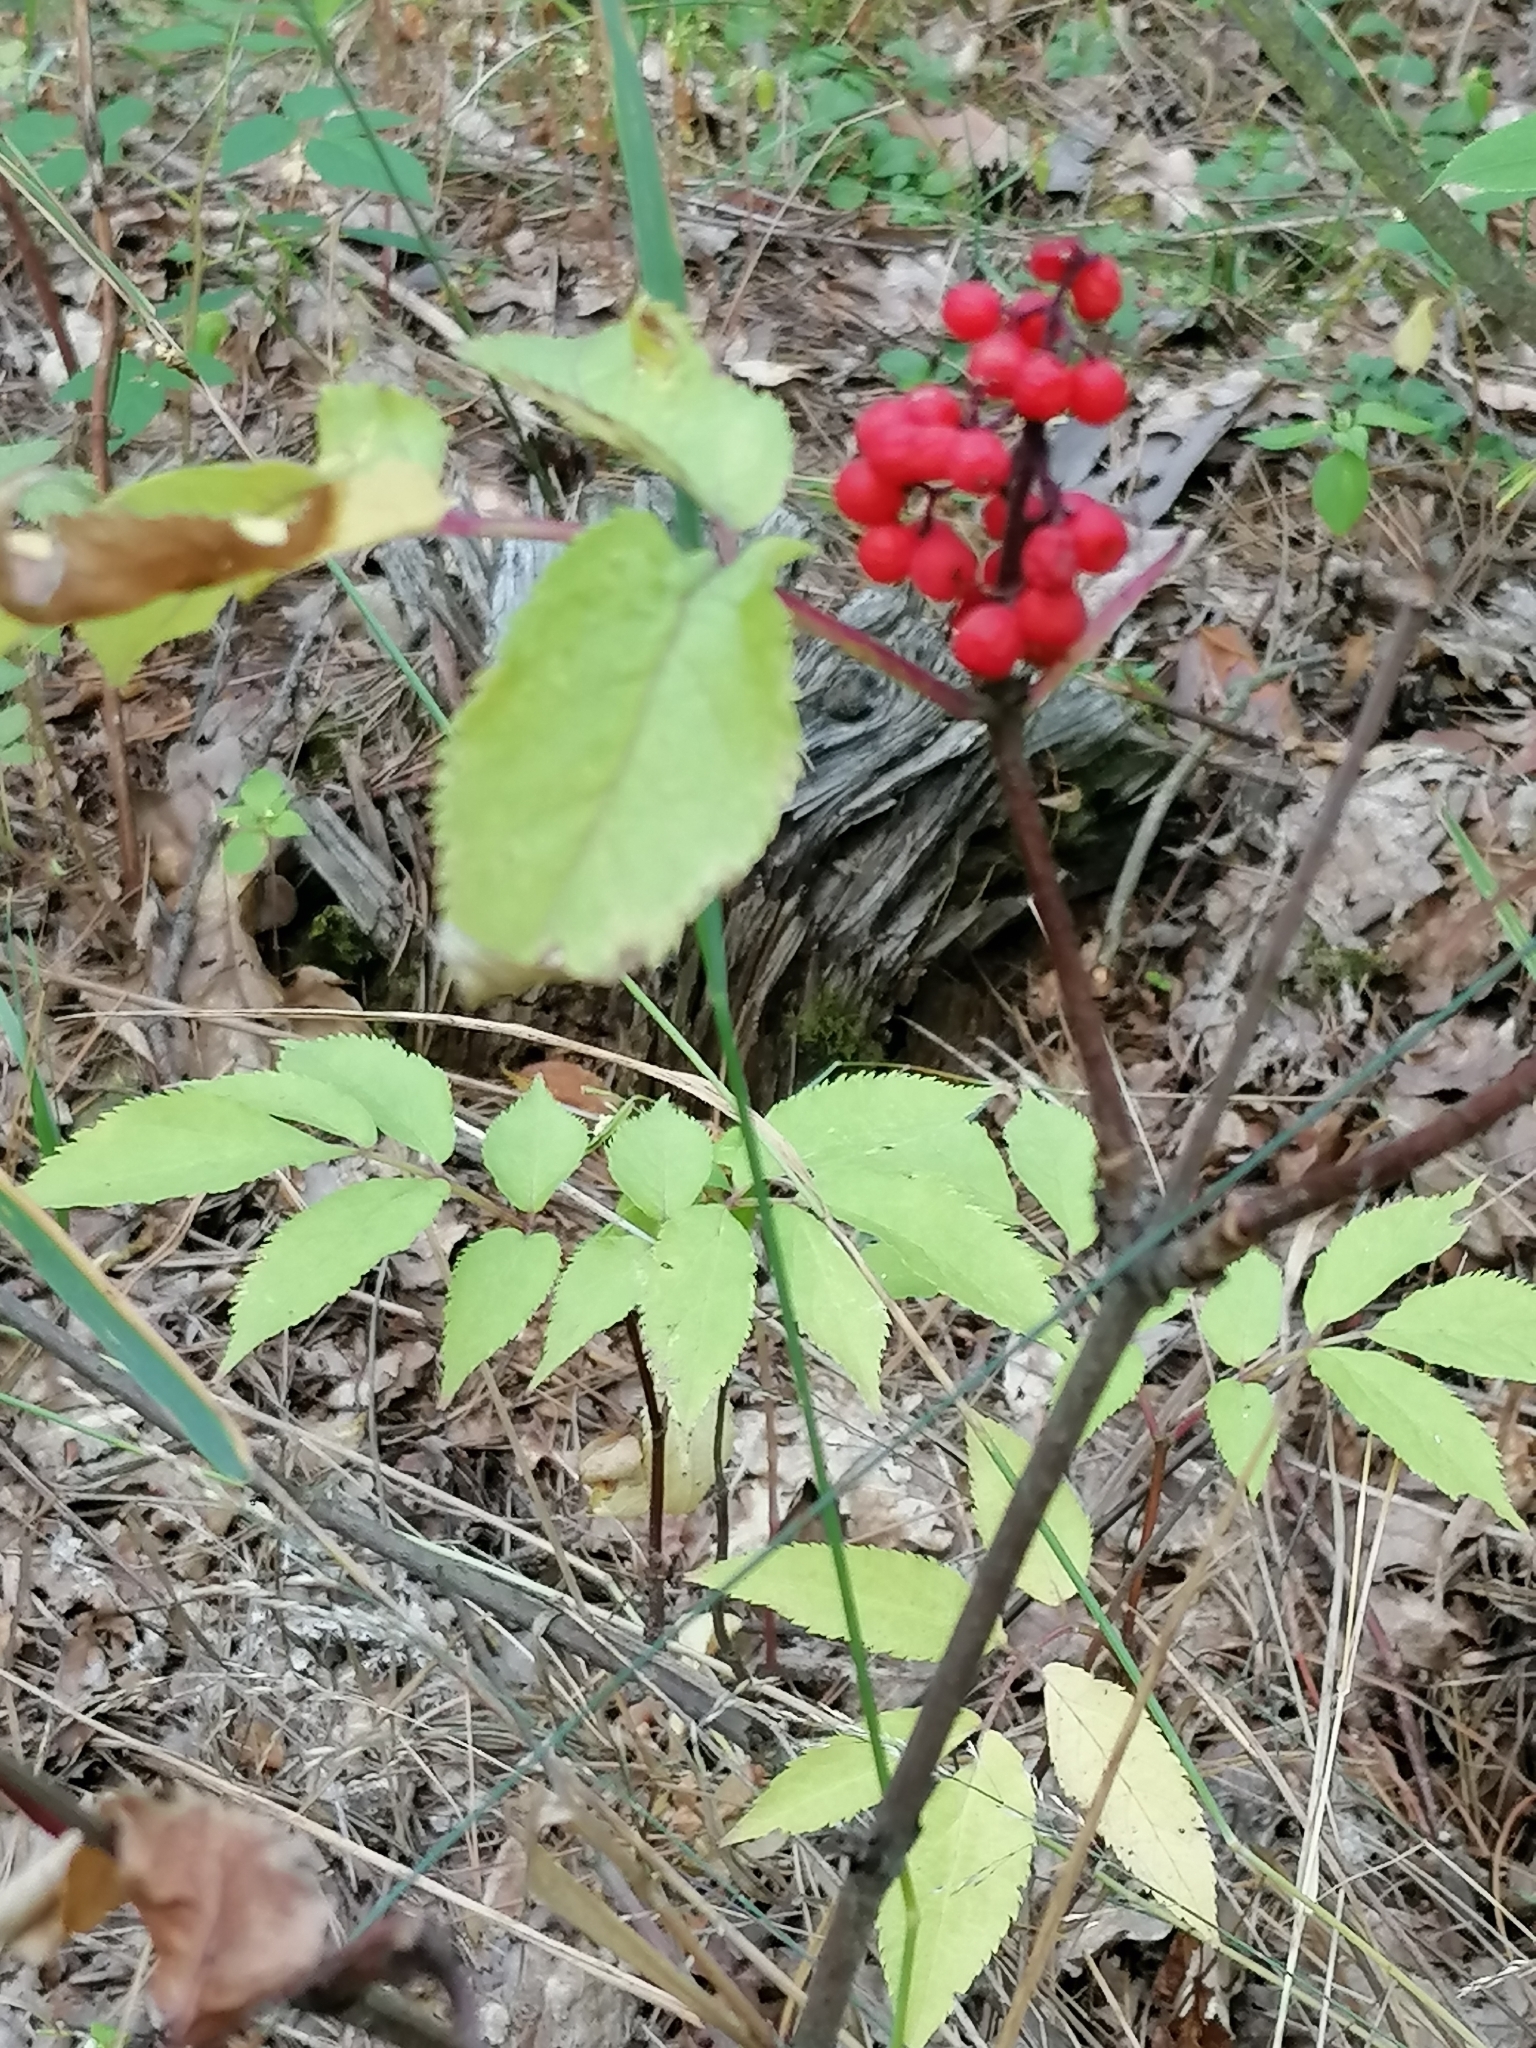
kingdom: Plantae
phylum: Tracheophyta
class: Magnoliopsida
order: Dipsacales
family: Viburnaceae
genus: Sambucus
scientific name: Sambucus racemosa
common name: Red-berried elder
